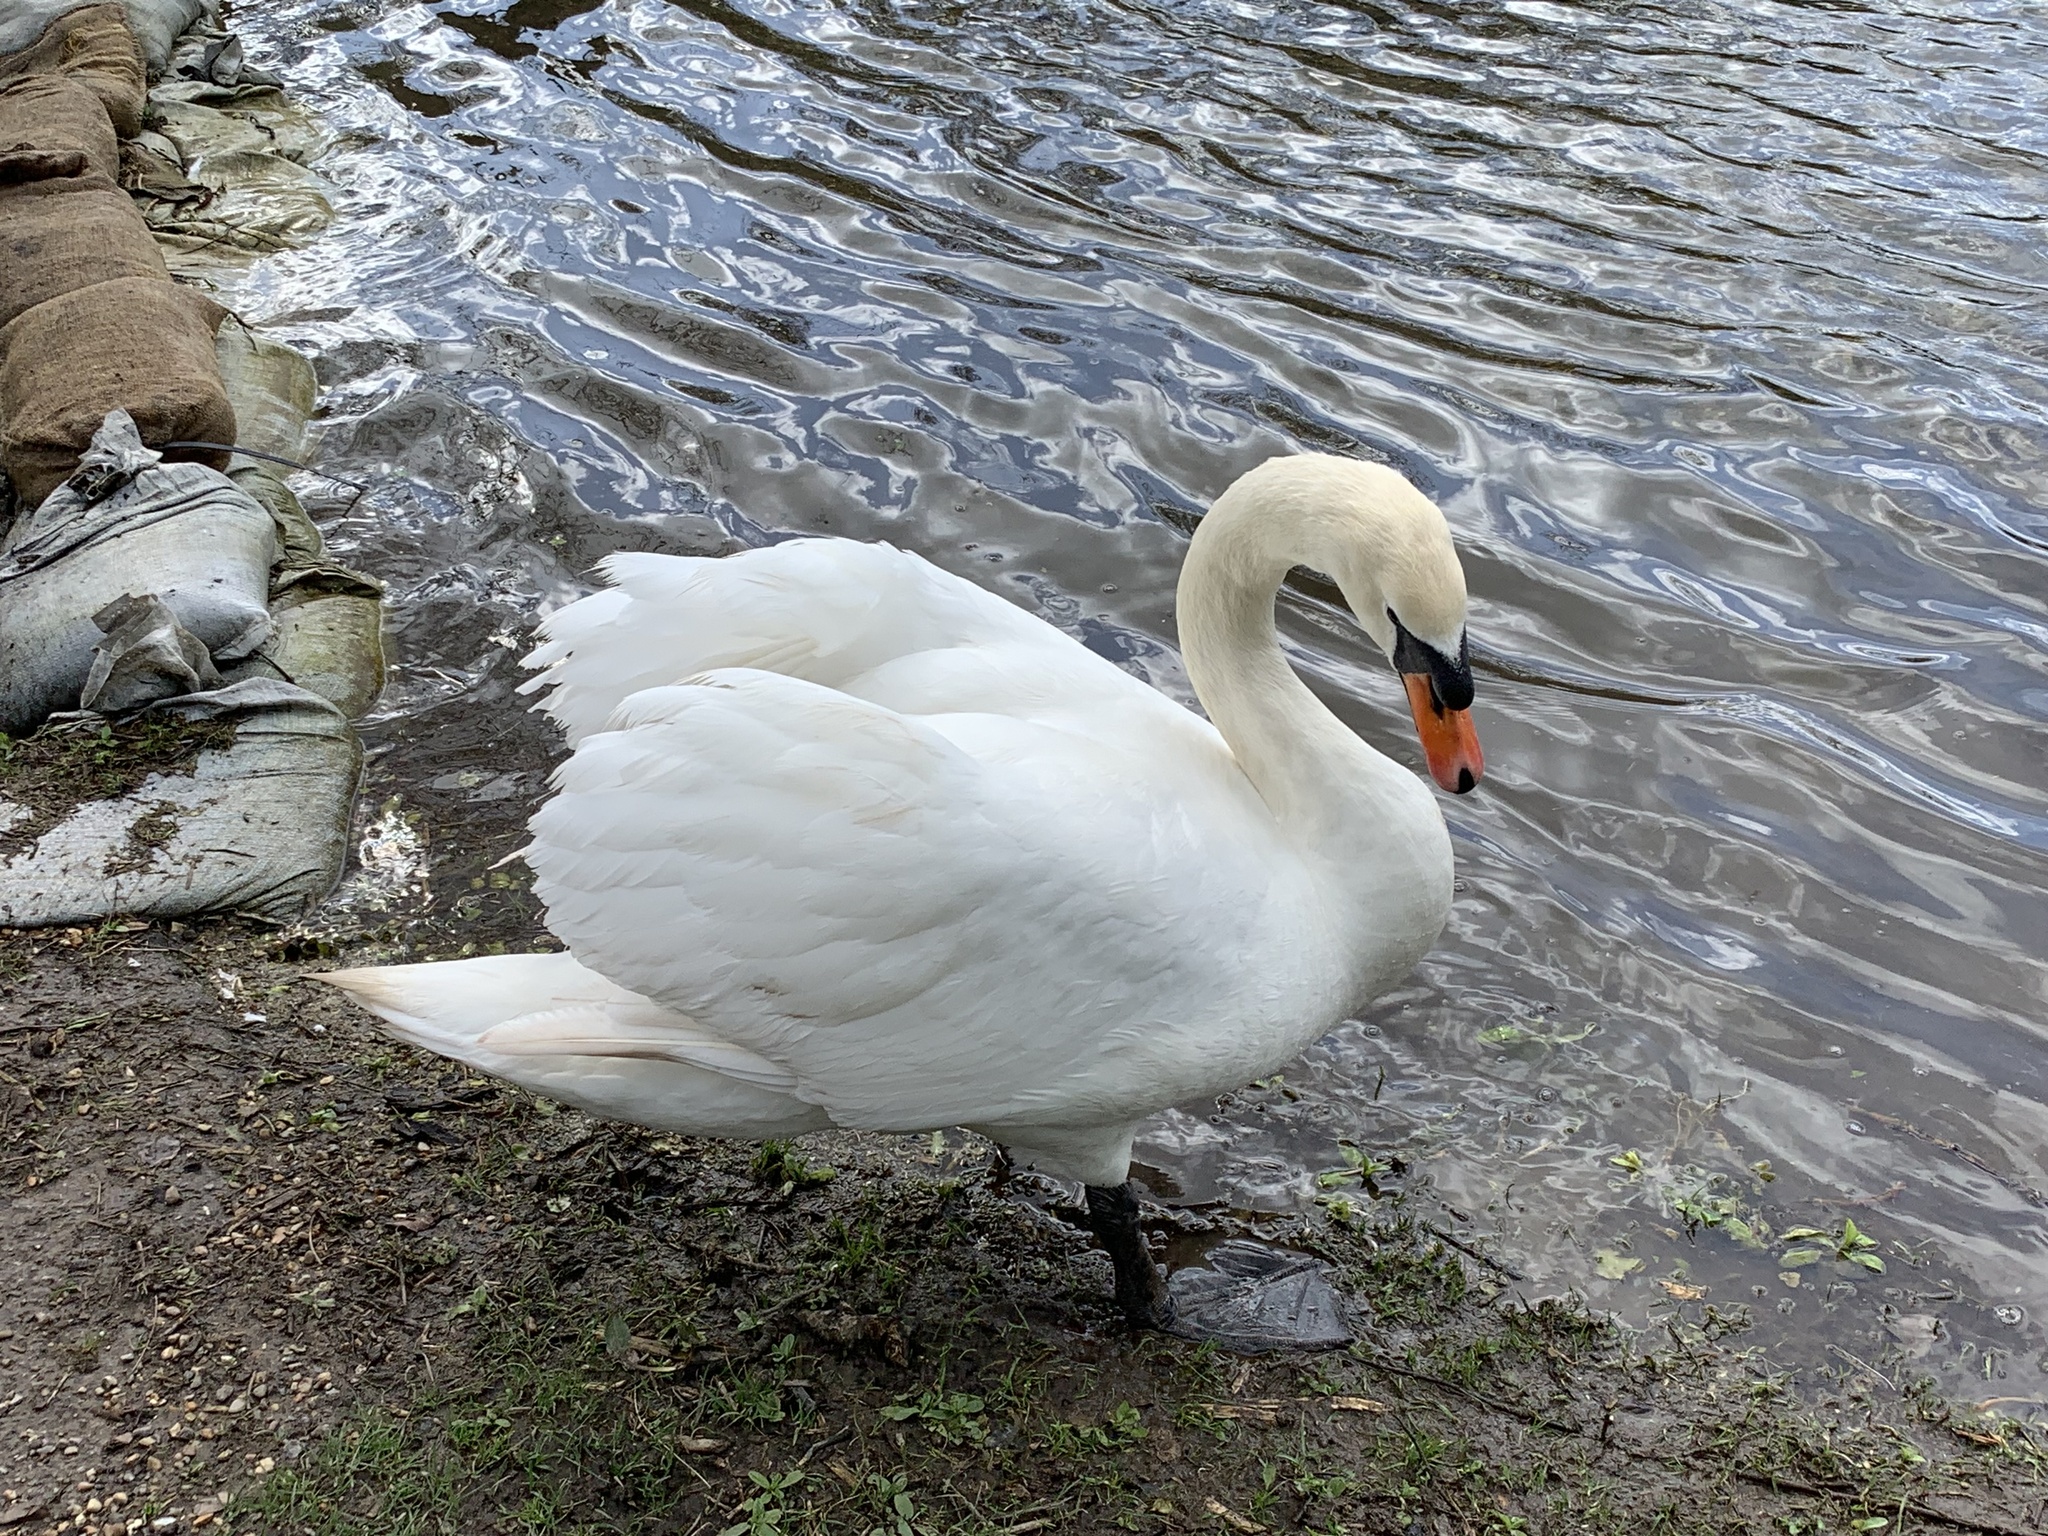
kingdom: Animalia
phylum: Chordata
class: Aves
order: Anseriformes
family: Anatidae
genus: Cygnus
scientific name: Cygnus olor
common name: Mute swan
